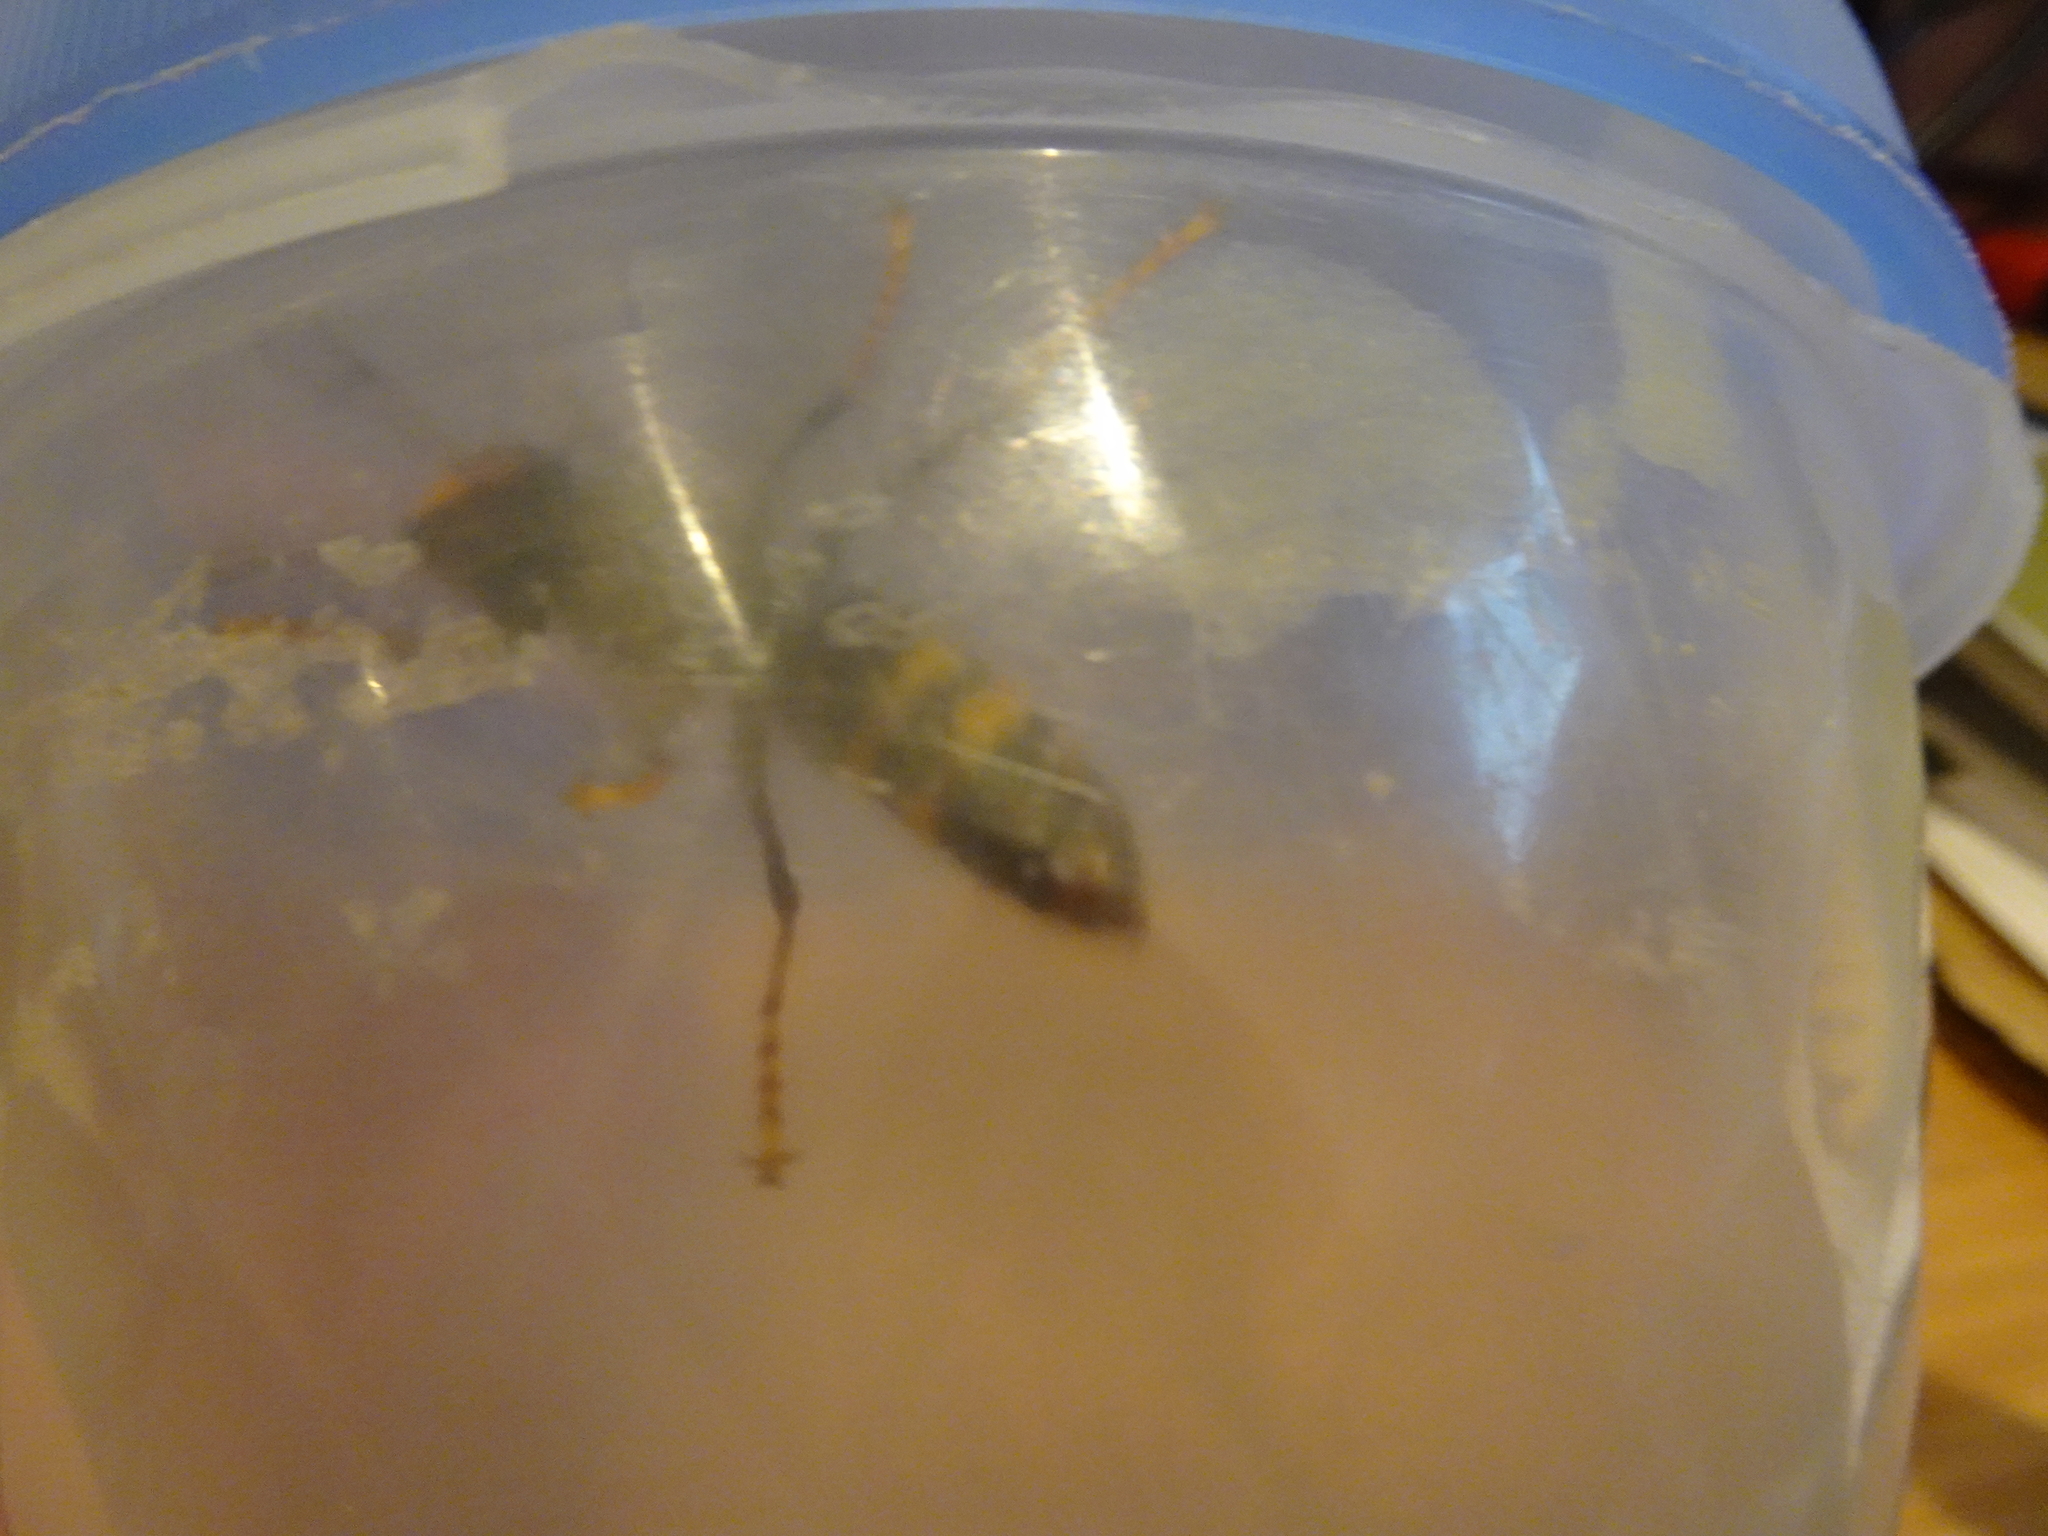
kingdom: Animalia
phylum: Arthropoda
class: Insecta
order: Hymenoptera
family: Vespidae
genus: Vespa
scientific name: Vespa velutina
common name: Asian hornet
